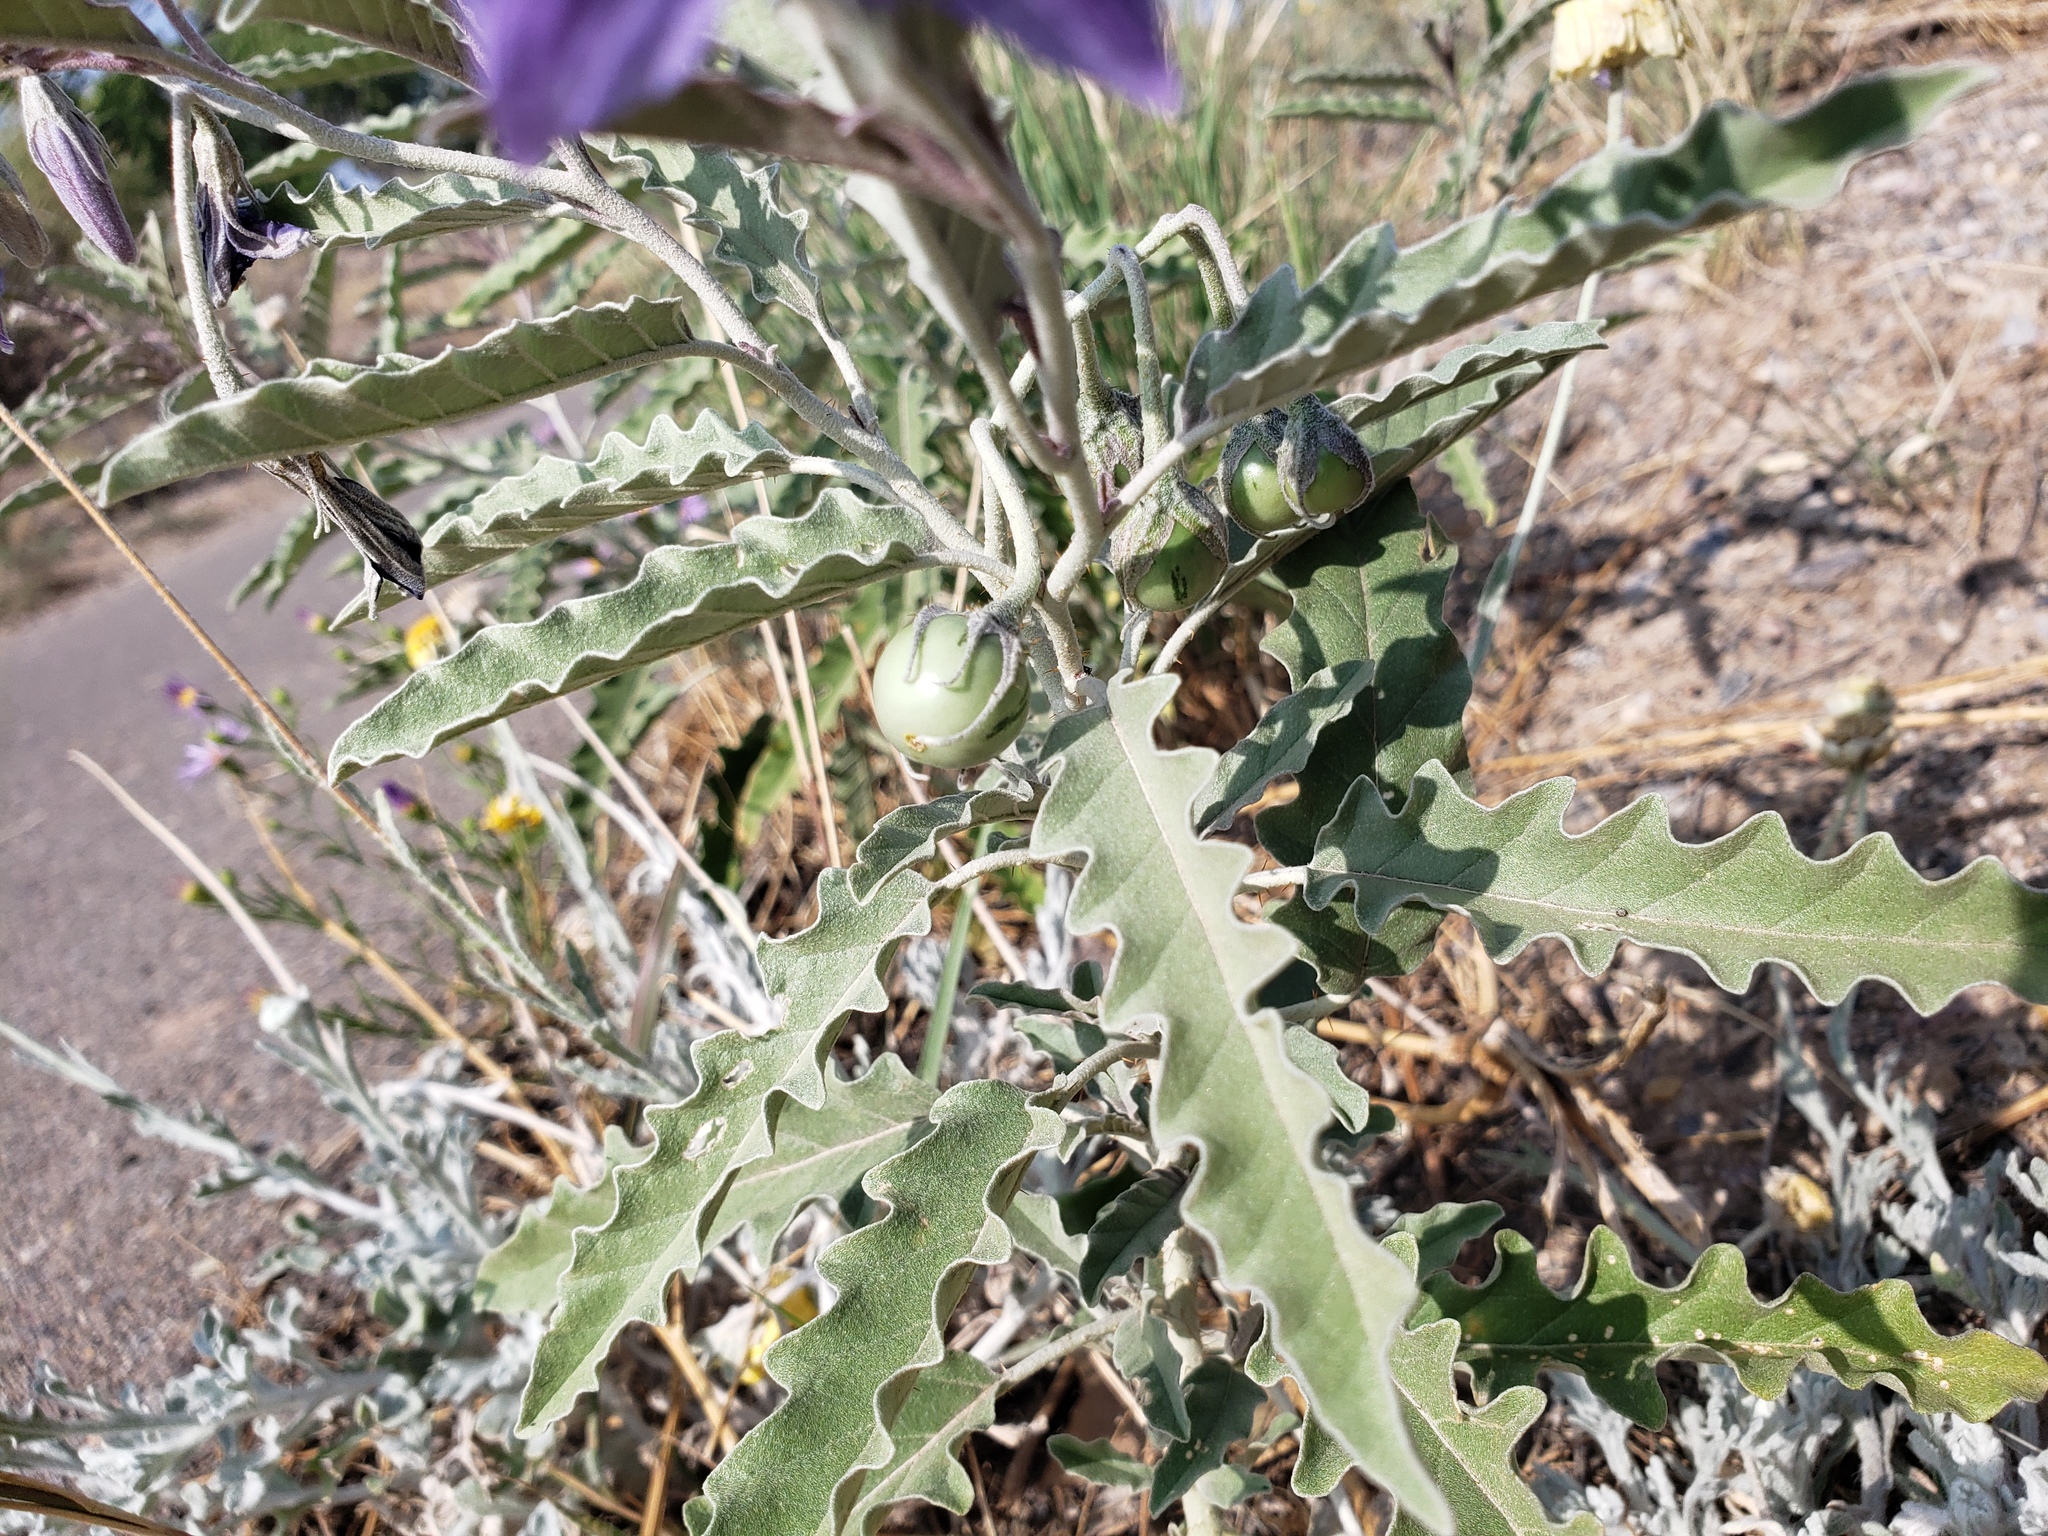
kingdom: Plantae
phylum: Tracheophyta
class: Magnoliopsida
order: Solanales
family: Solanaceae
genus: Solanum
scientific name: Solanum elaeagnifolium
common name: Silverleaf nightshade
